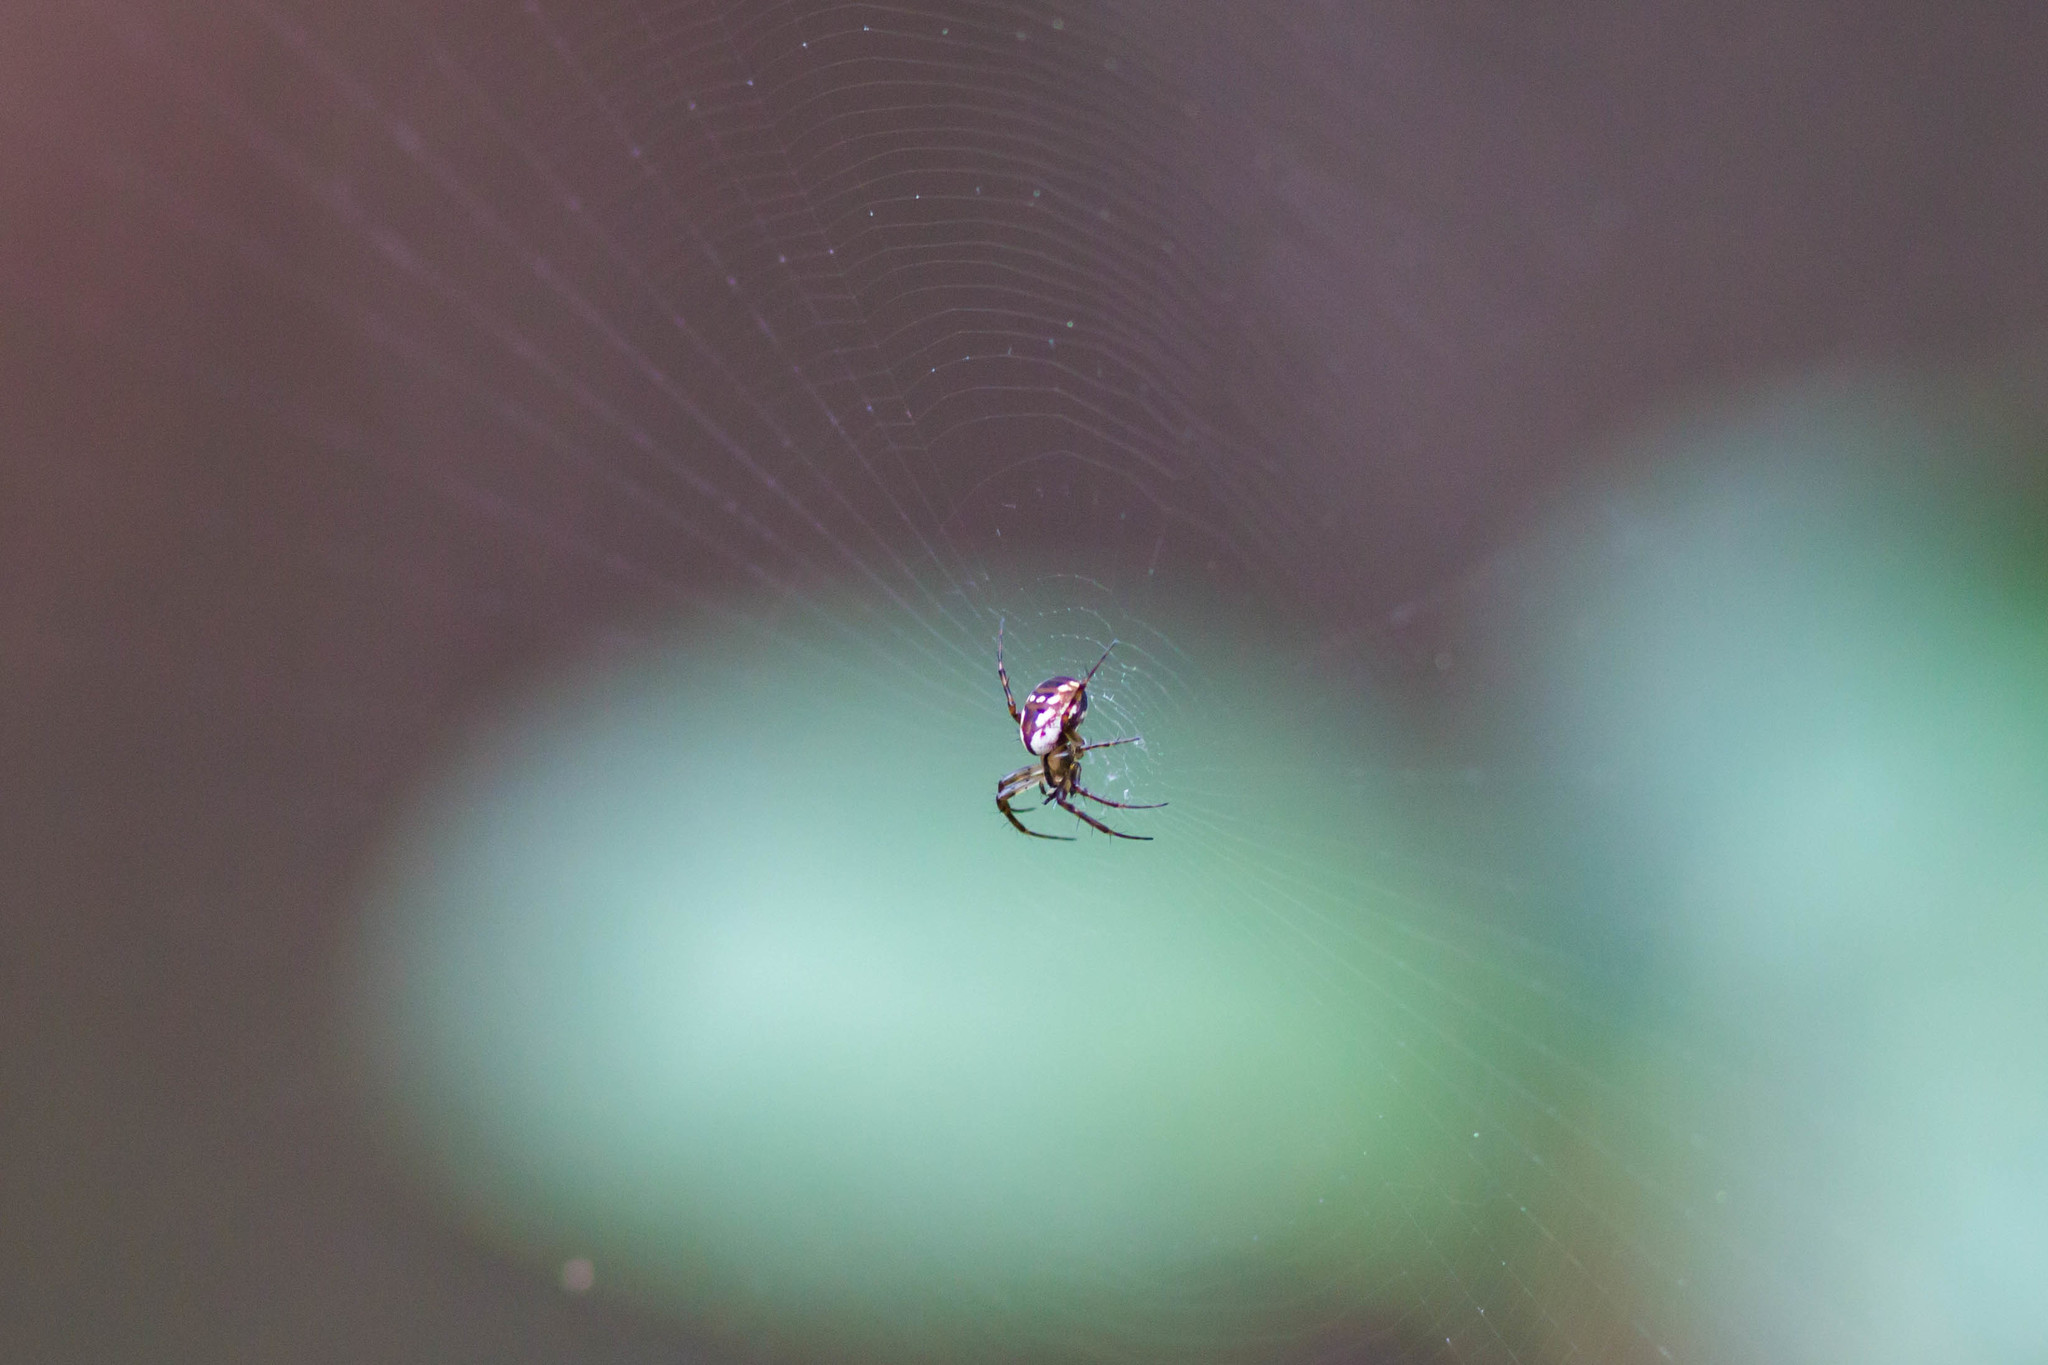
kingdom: Animalia
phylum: Arthropoda
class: Arachnida
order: Araneae
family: Araneidae
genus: Mangora
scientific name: Mangora placida
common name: Tuft-legged orbweaver
